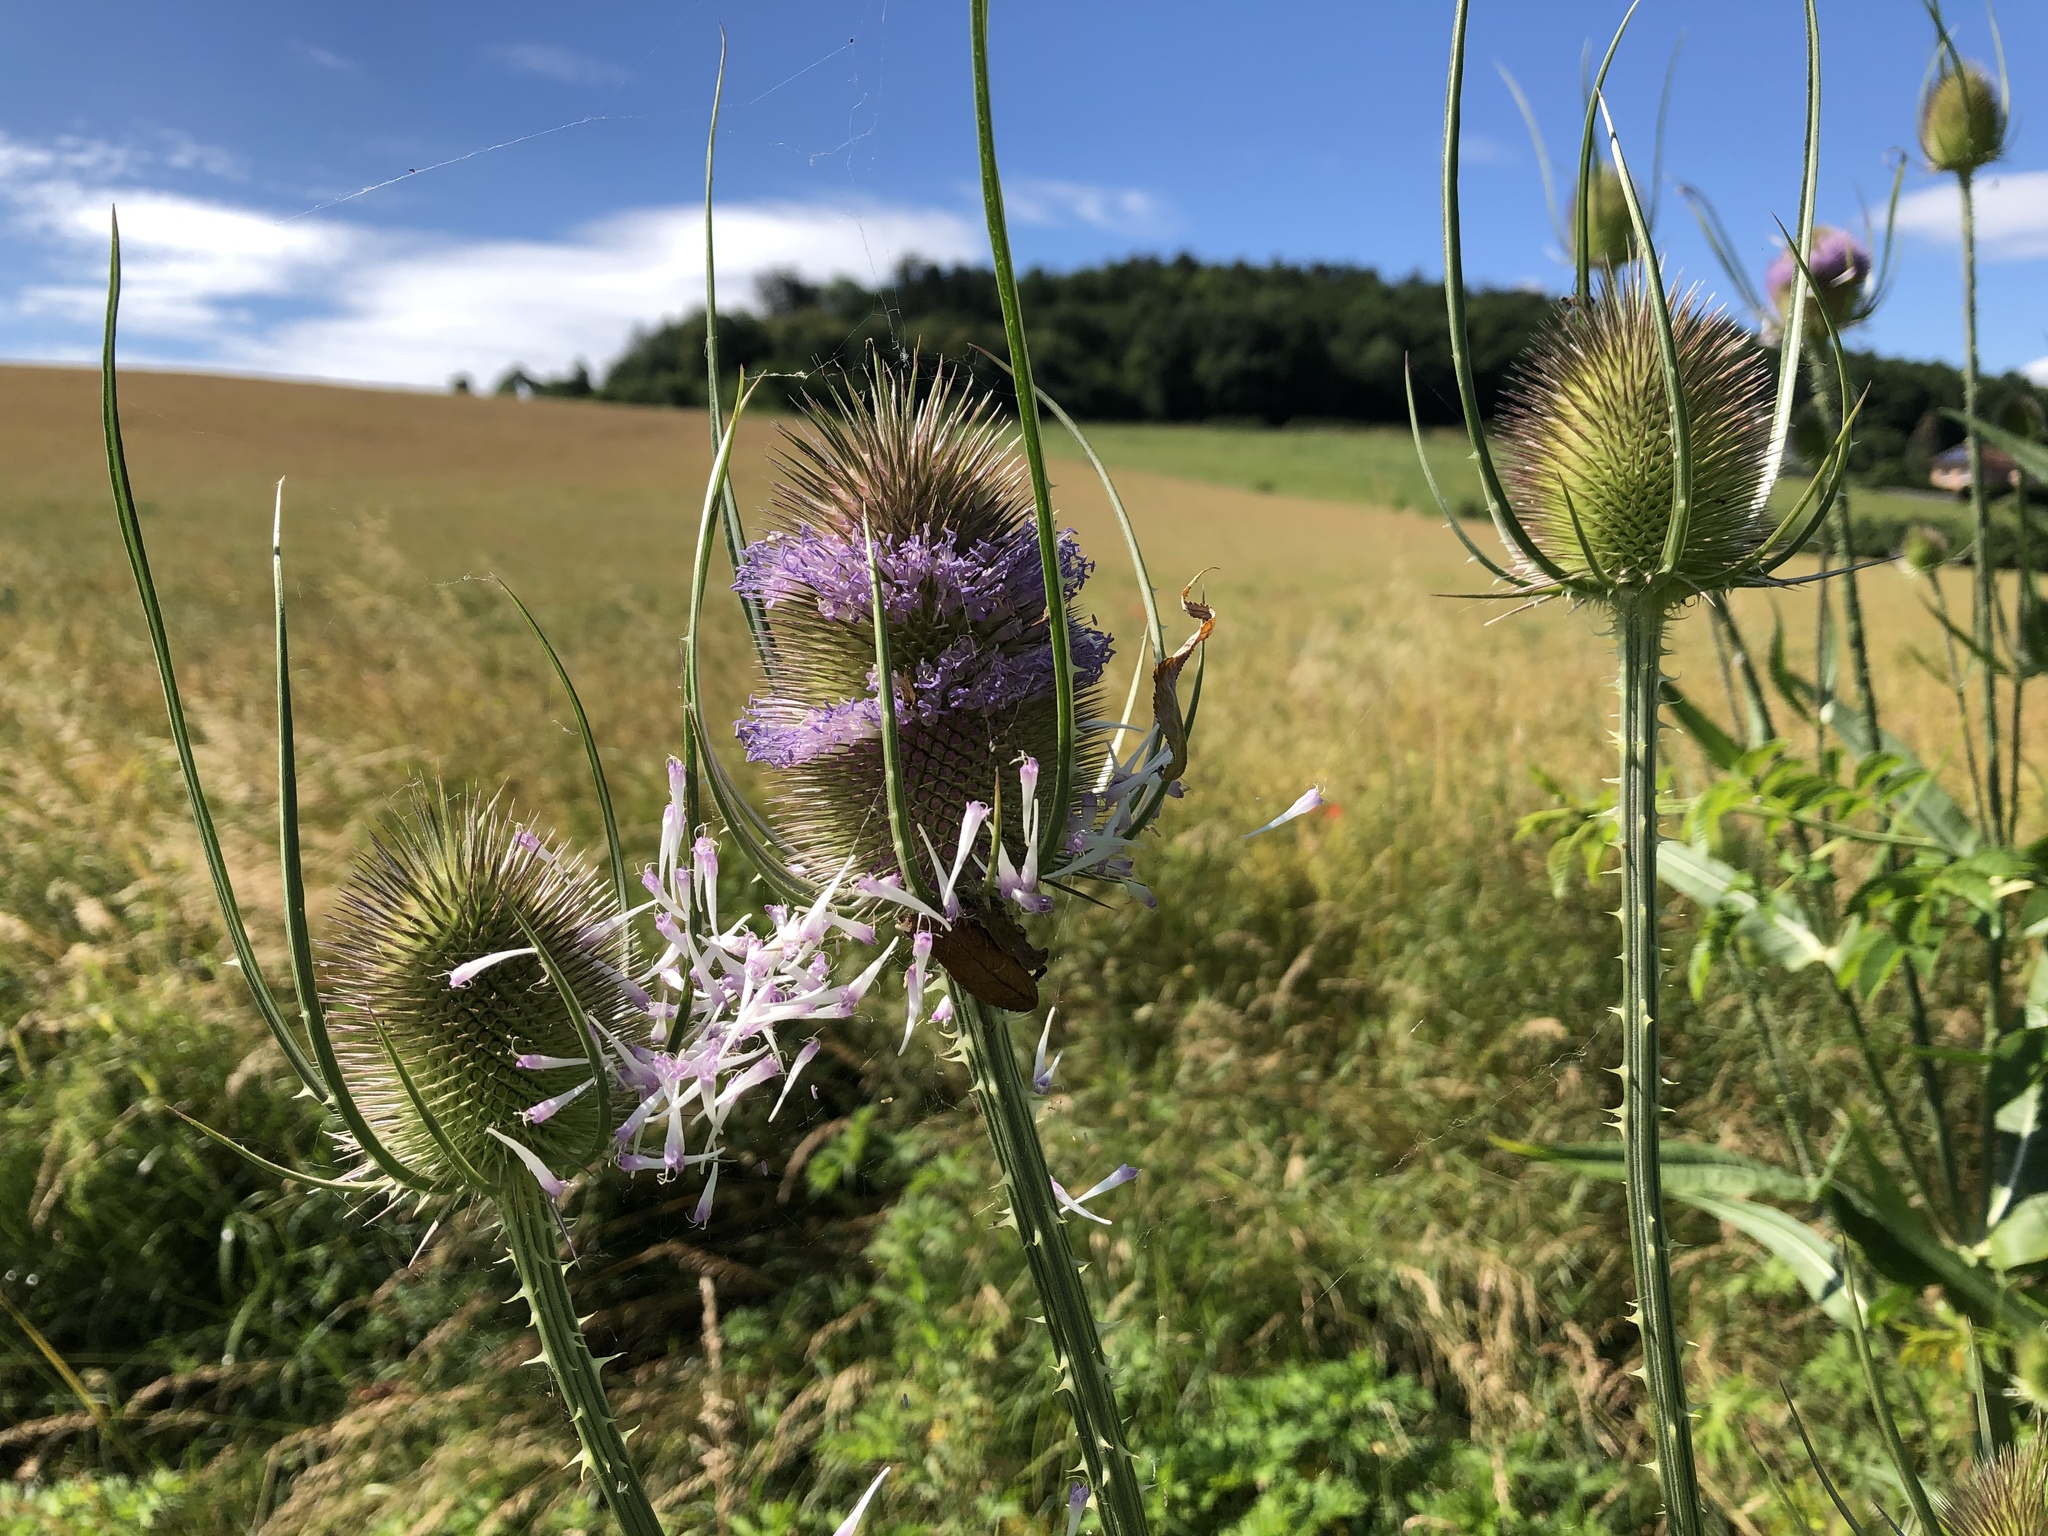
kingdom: Plantae
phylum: Tracheophyta
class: Magnoliopsida
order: Dipsacales
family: Caprifoliaceae
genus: Dipsacus
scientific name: Dipsacus fullonum
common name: Teasel
